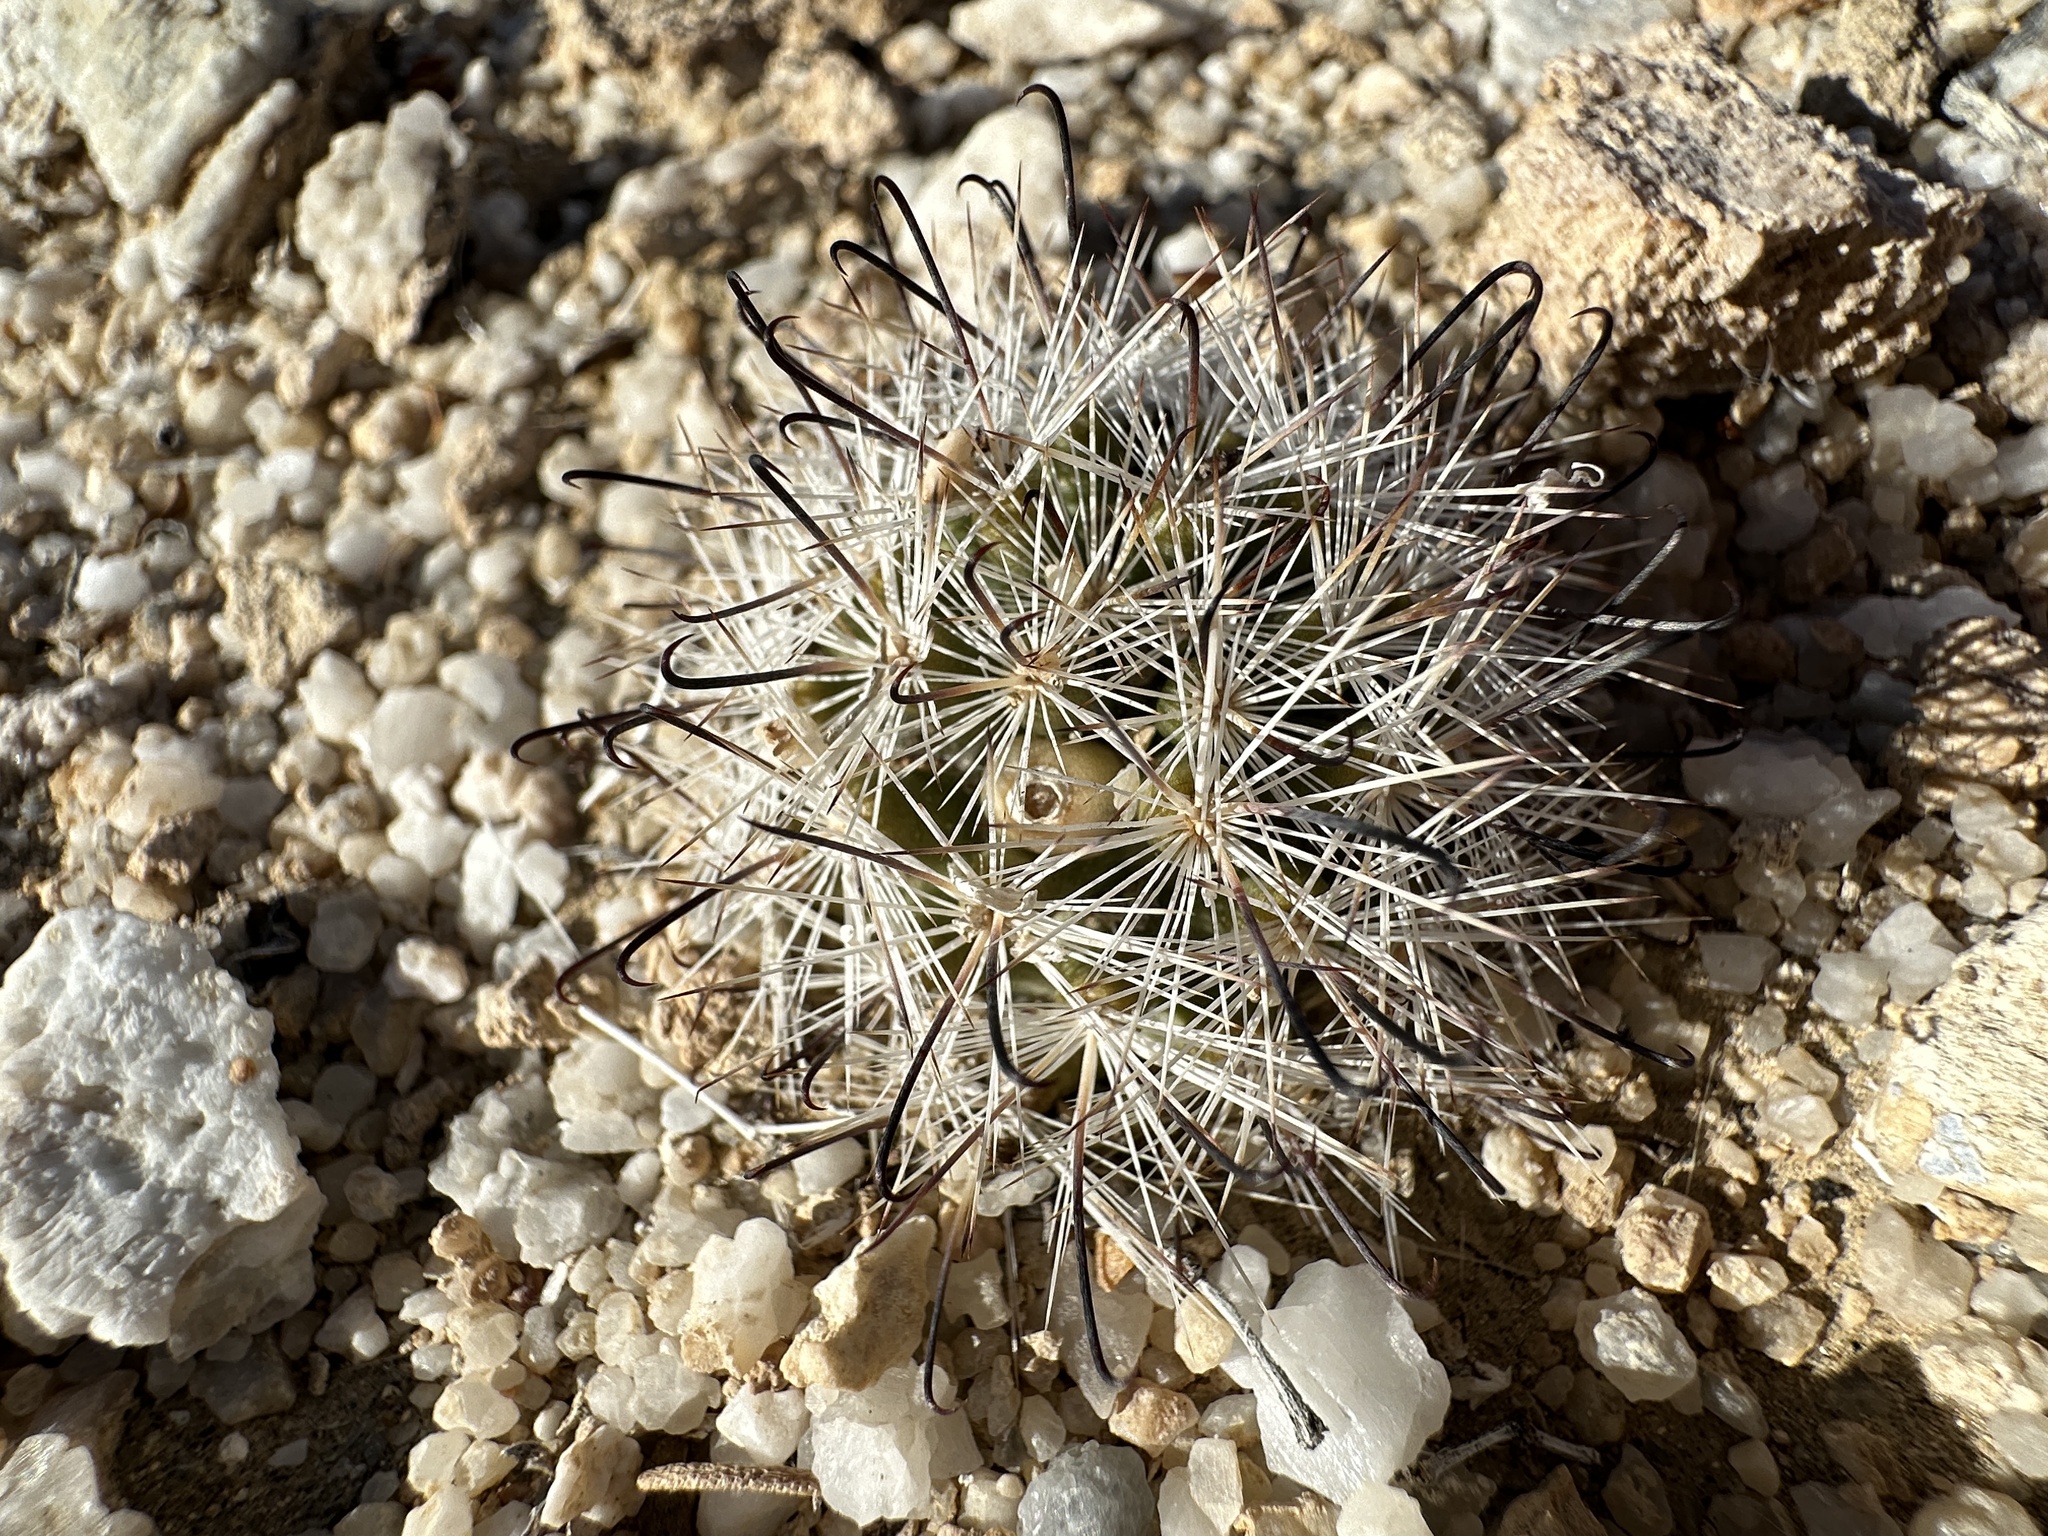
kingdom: Plantae
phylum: Tracheophyta
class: Magnoliopsida
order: Caryophyllales
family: Cactaceae
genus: Cochemiea
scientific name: Cochemiea tetrancistra
